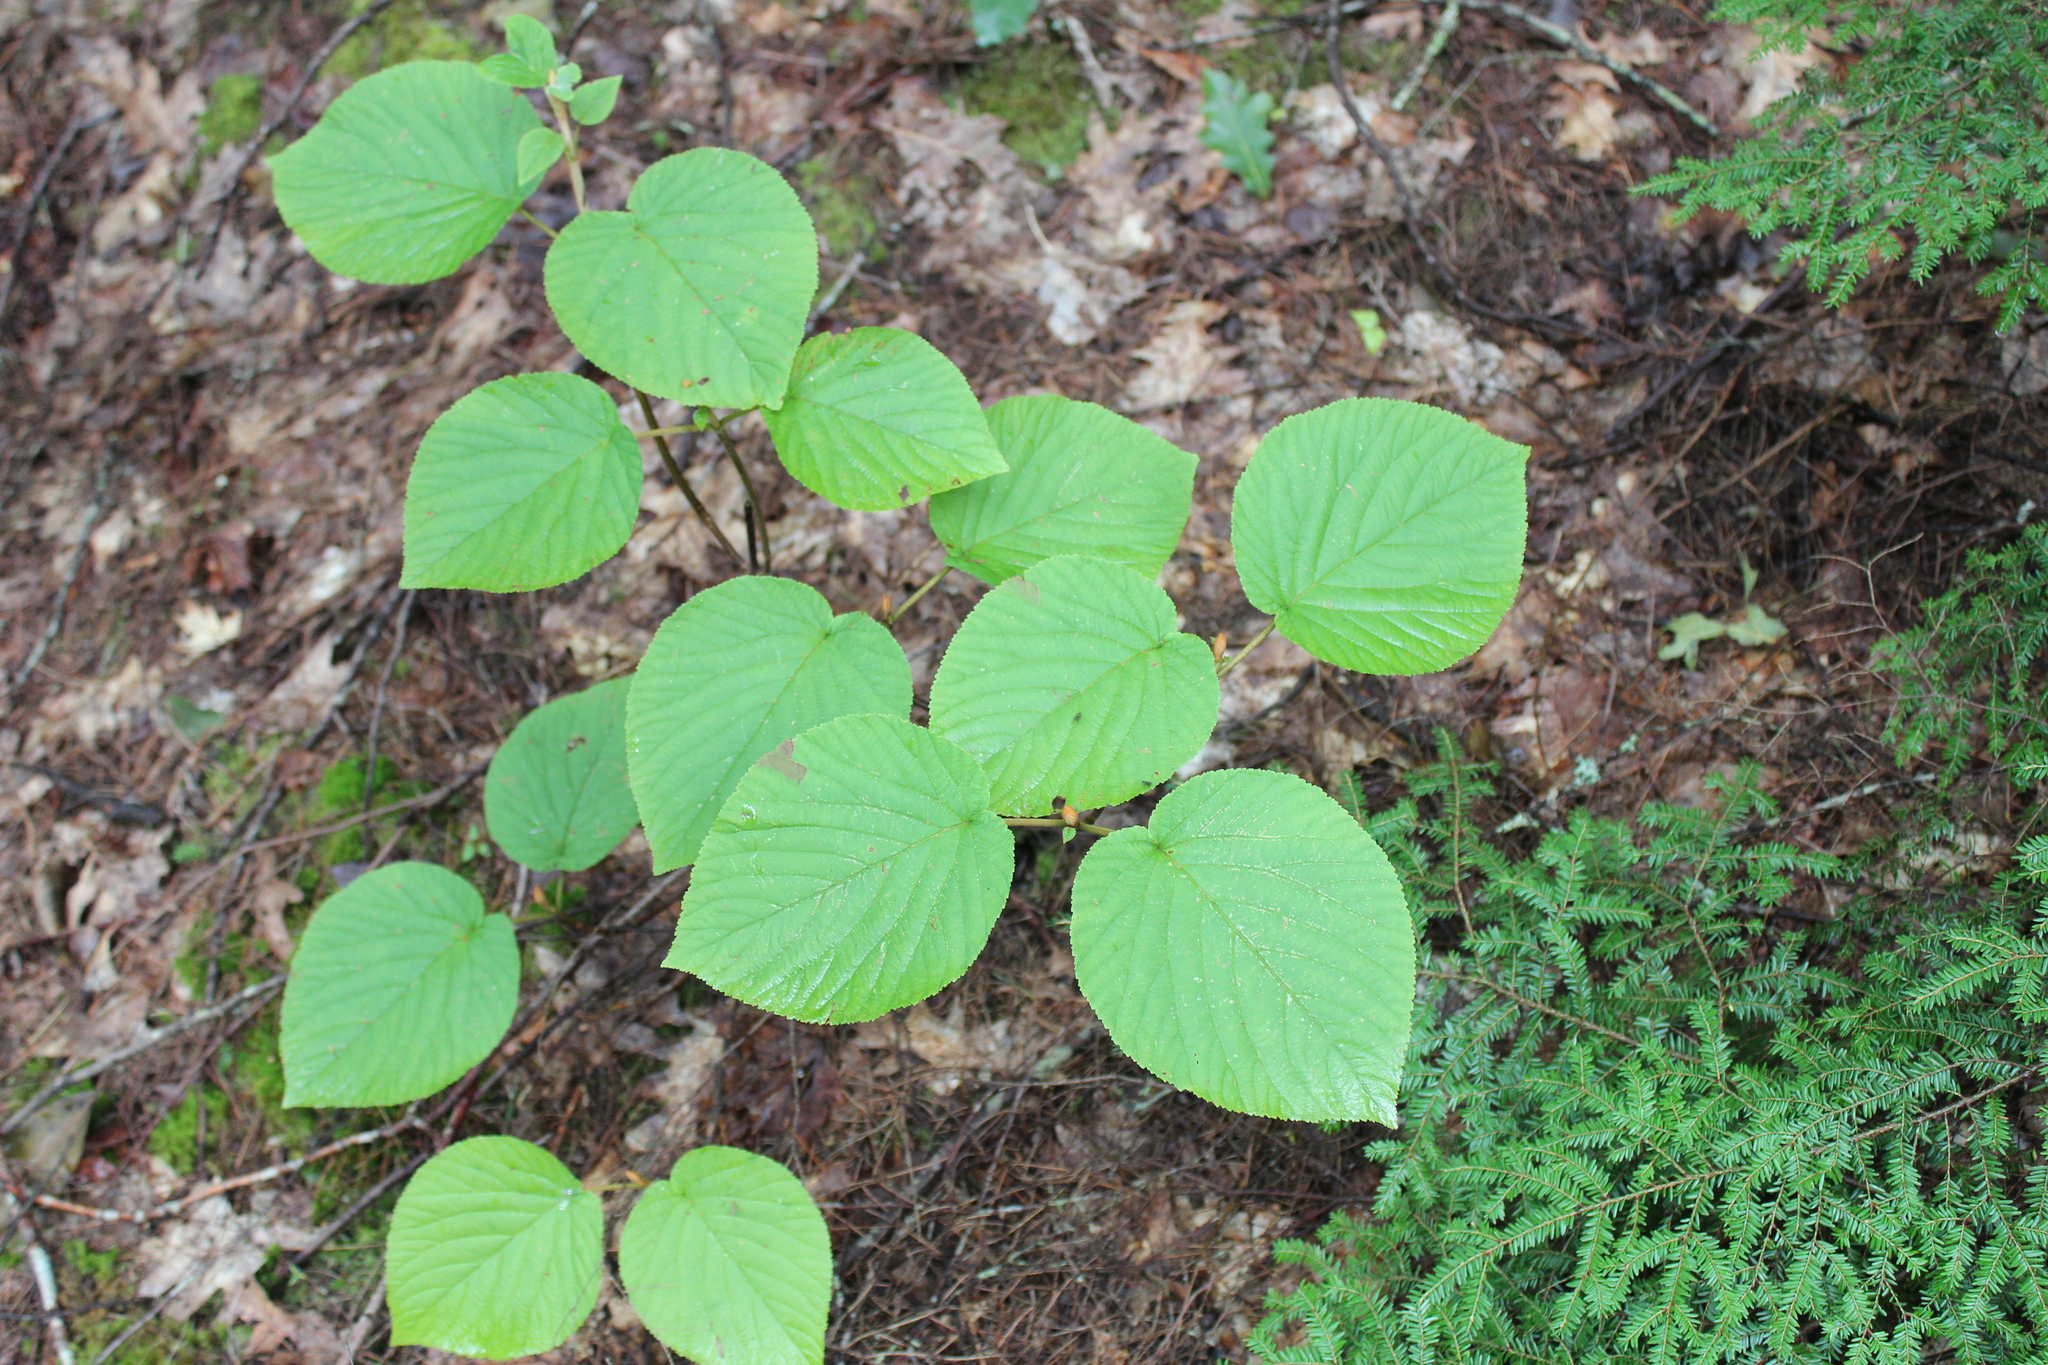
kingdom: Plantae
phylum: Tracheophyta
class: Magnoliopsida
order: Dipsacales
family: Viburnaceae
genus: Viburnum
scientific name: Viburnum lantanoides
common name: Hobblebush
